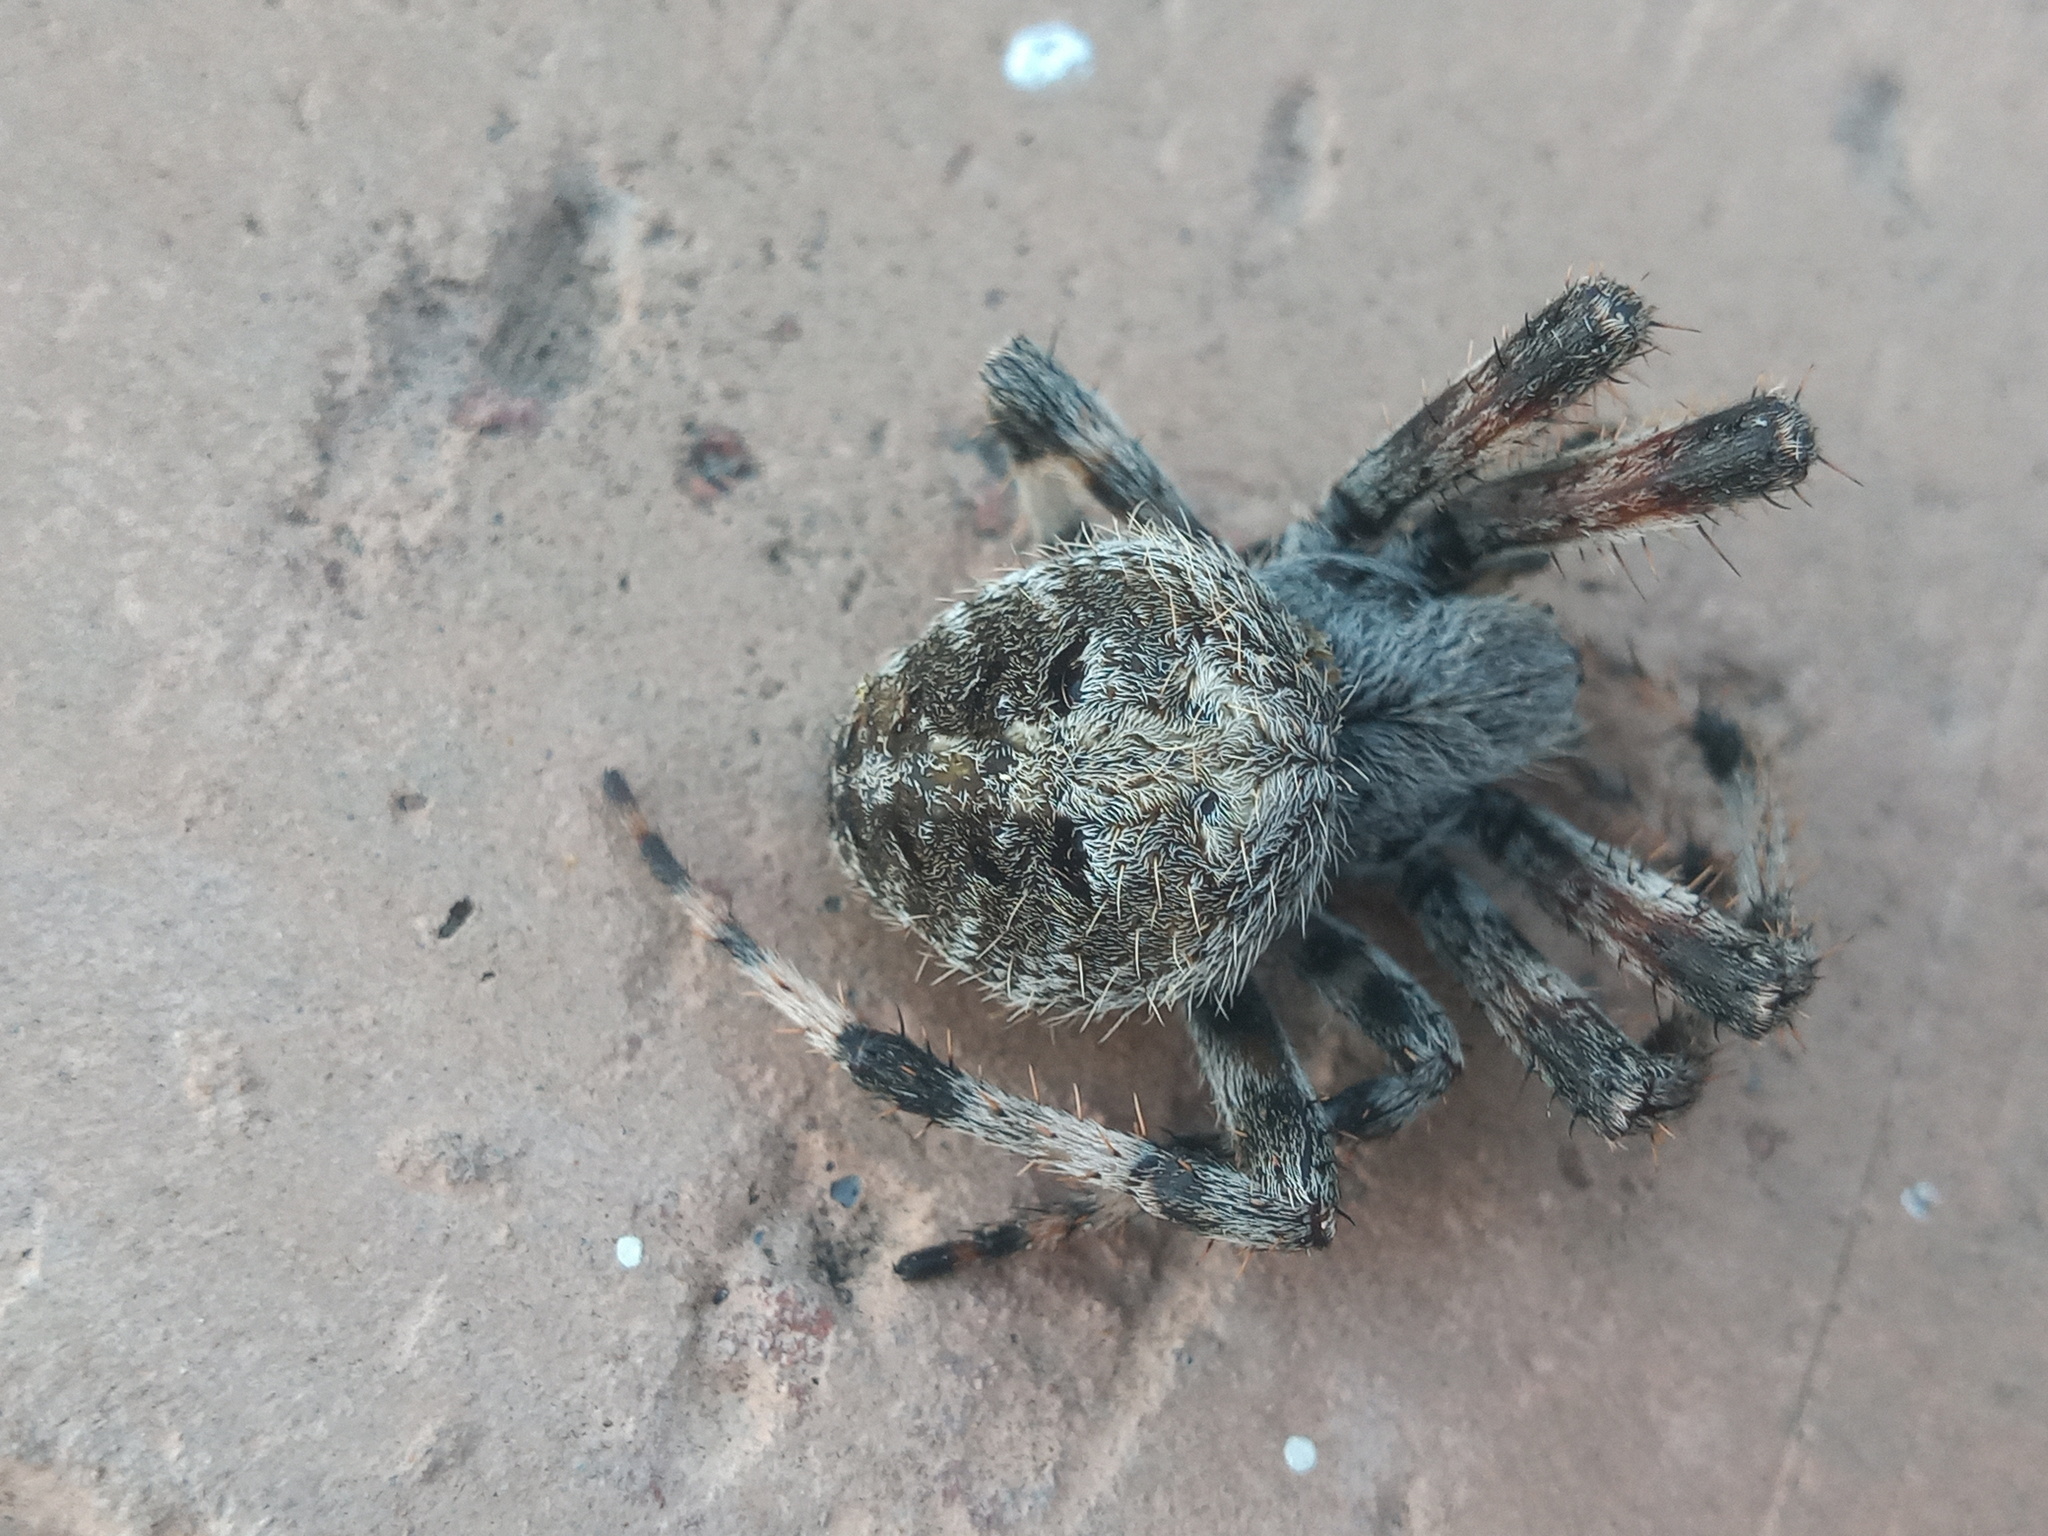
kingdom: Animalia
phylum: Arthropoda
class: Arachnida
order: Araneae
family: Araneidae
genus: Neoscona
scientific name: Neoscona crucifera
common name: Spotted orbweaver
